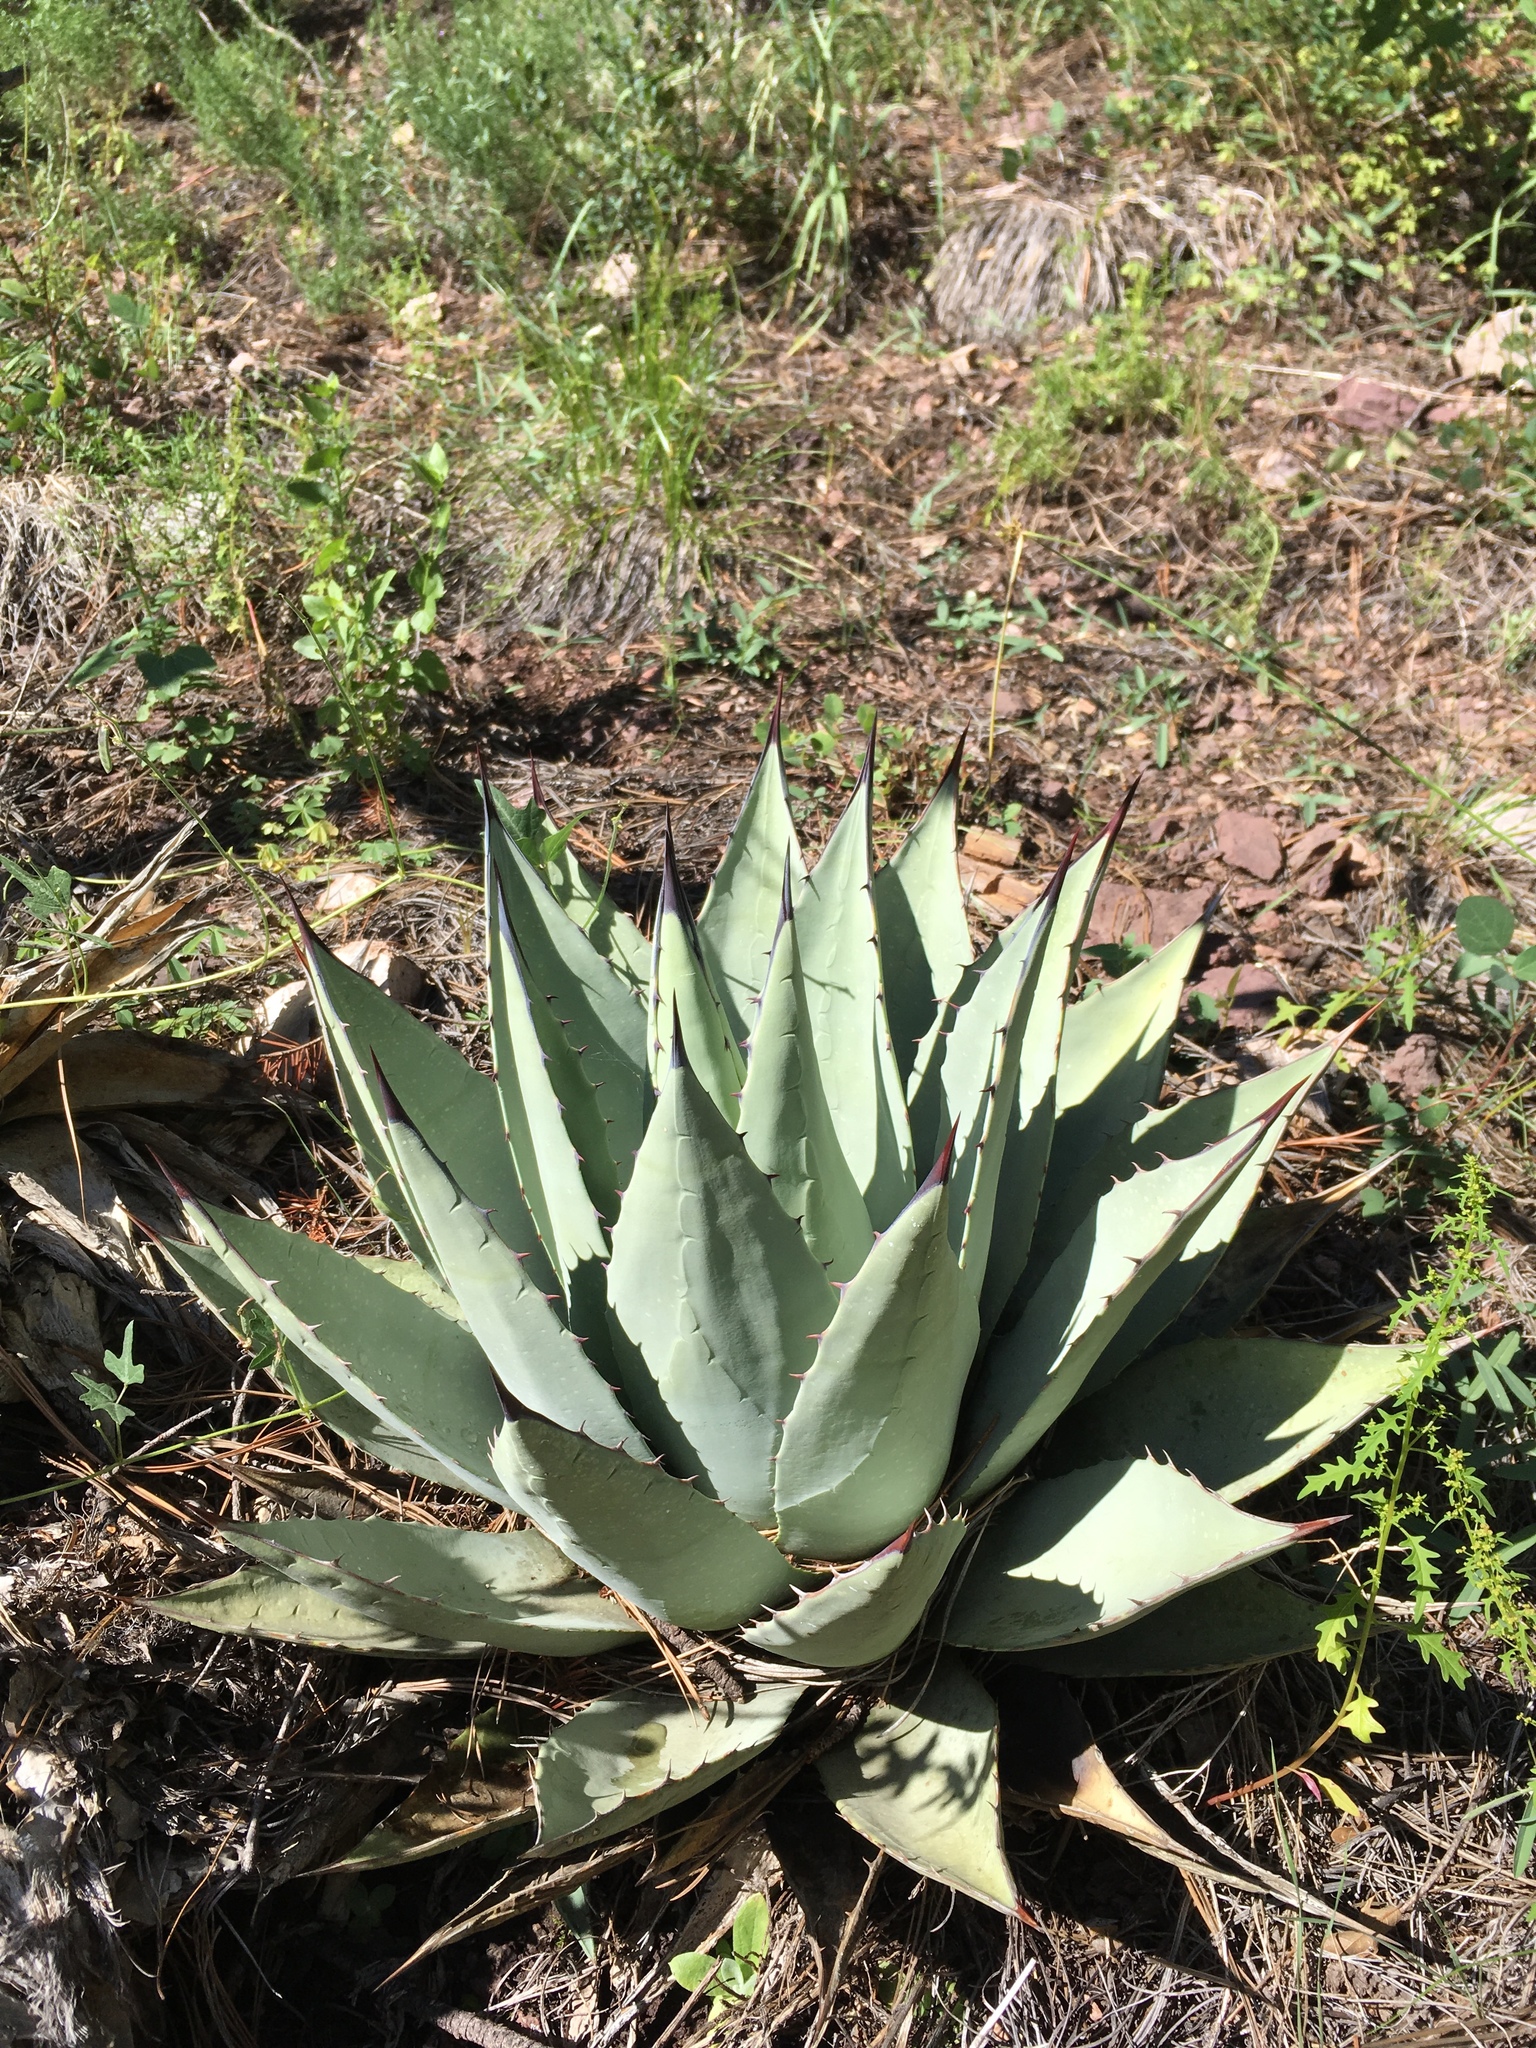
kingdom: Plantae
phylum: Tracheophyta
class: Liliopsida
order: Asparagales
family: Asparagaceae
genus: Agave
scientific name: Agave parryi
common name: Parry's agave
